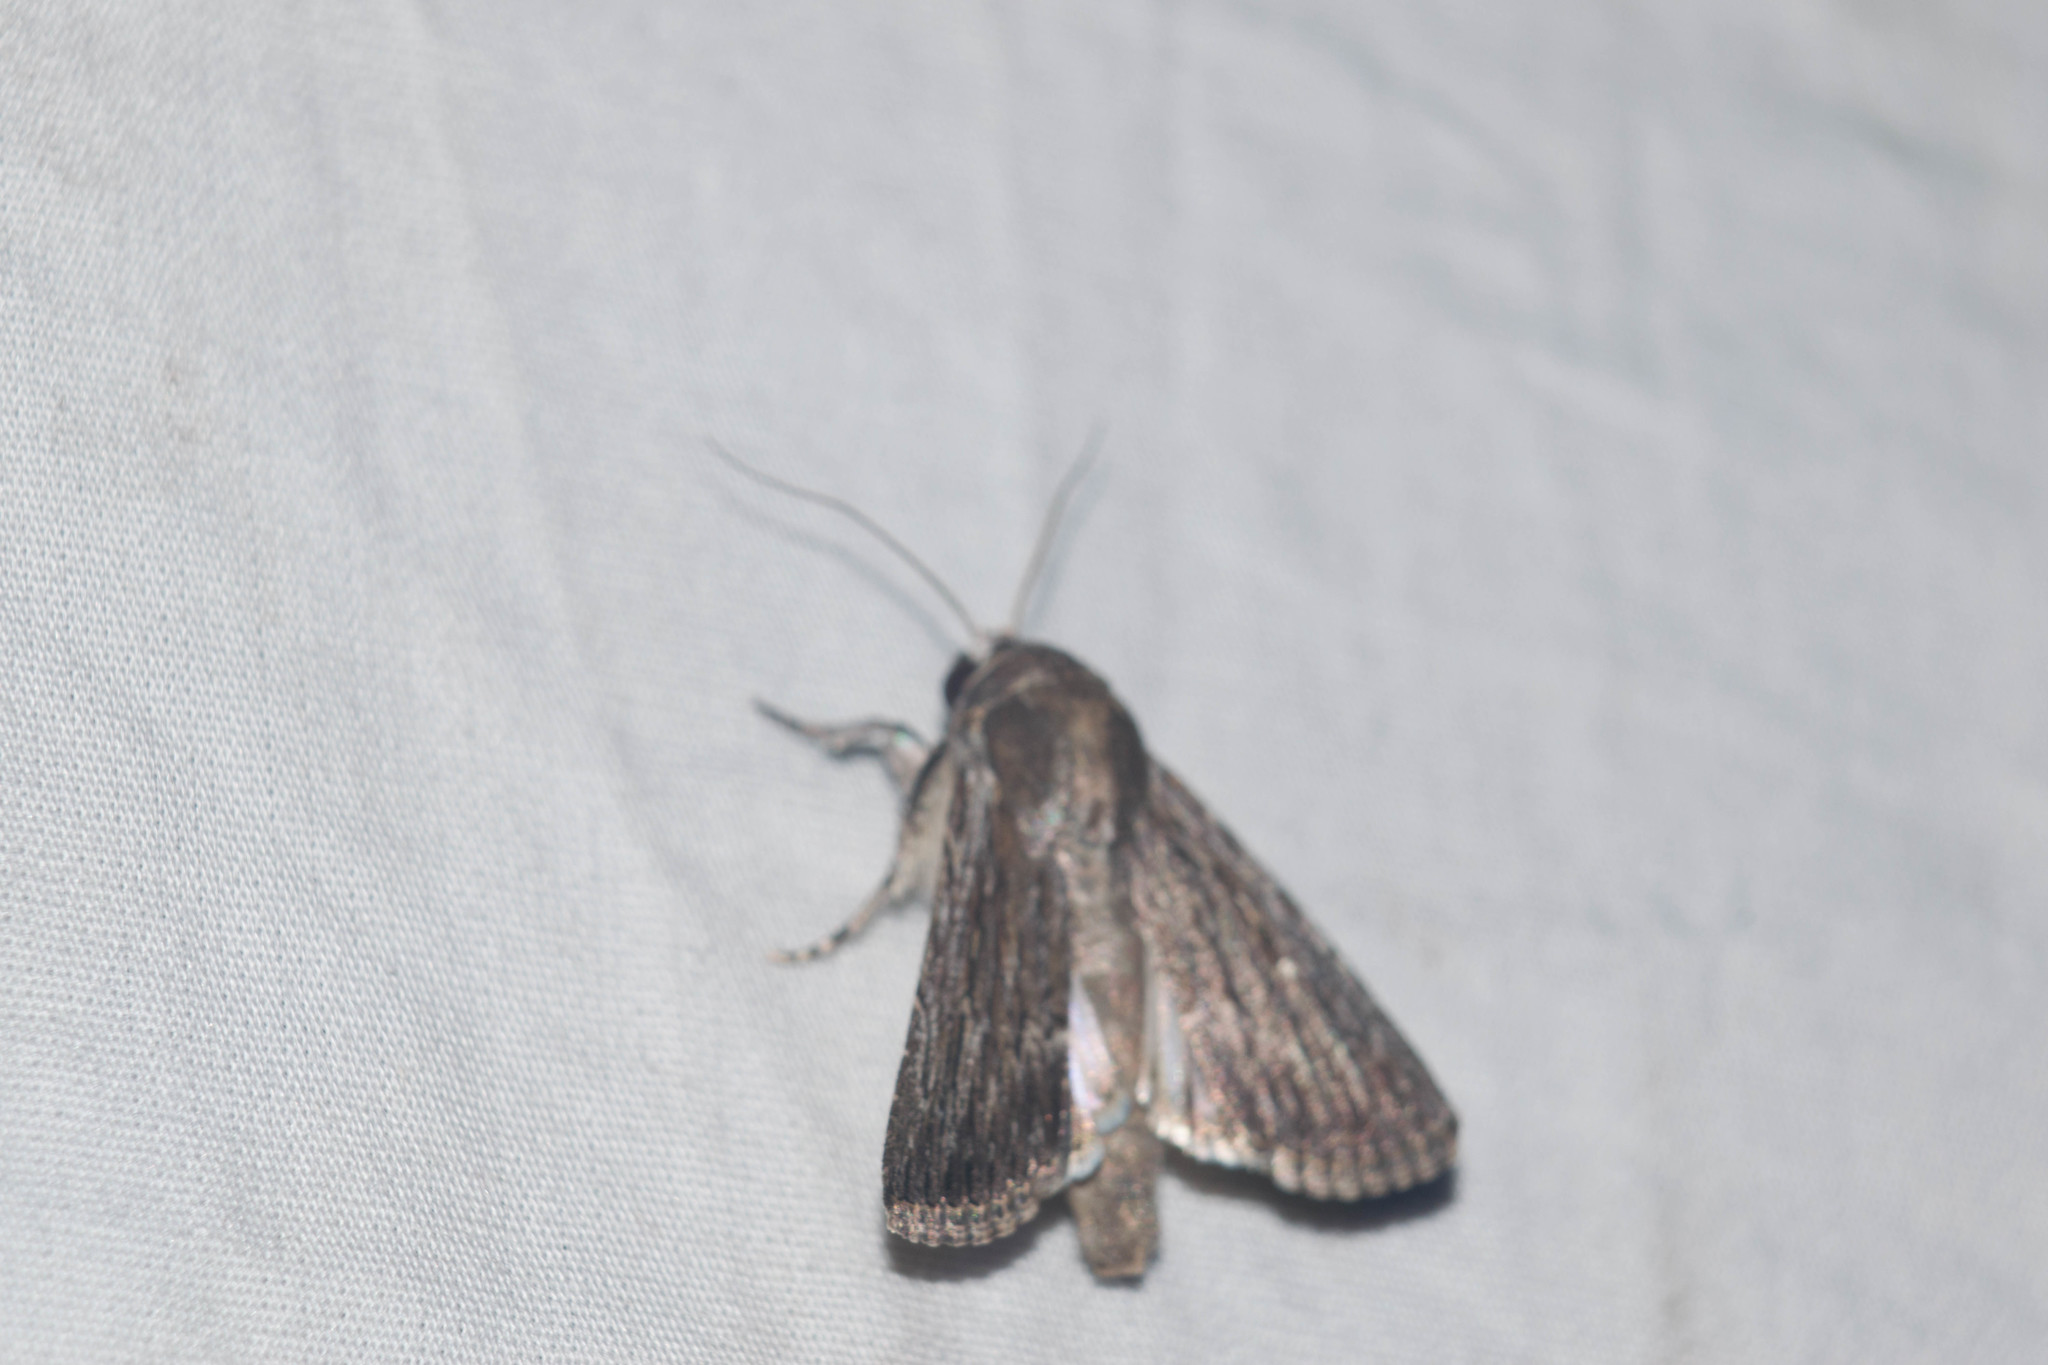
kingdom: Animalia
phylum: Arthropoda
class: Insecta
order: Lepidoptera
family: Noctuidae
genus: Neogalea
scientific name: Neogalea sunia
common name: Lantana stick caterpillar
